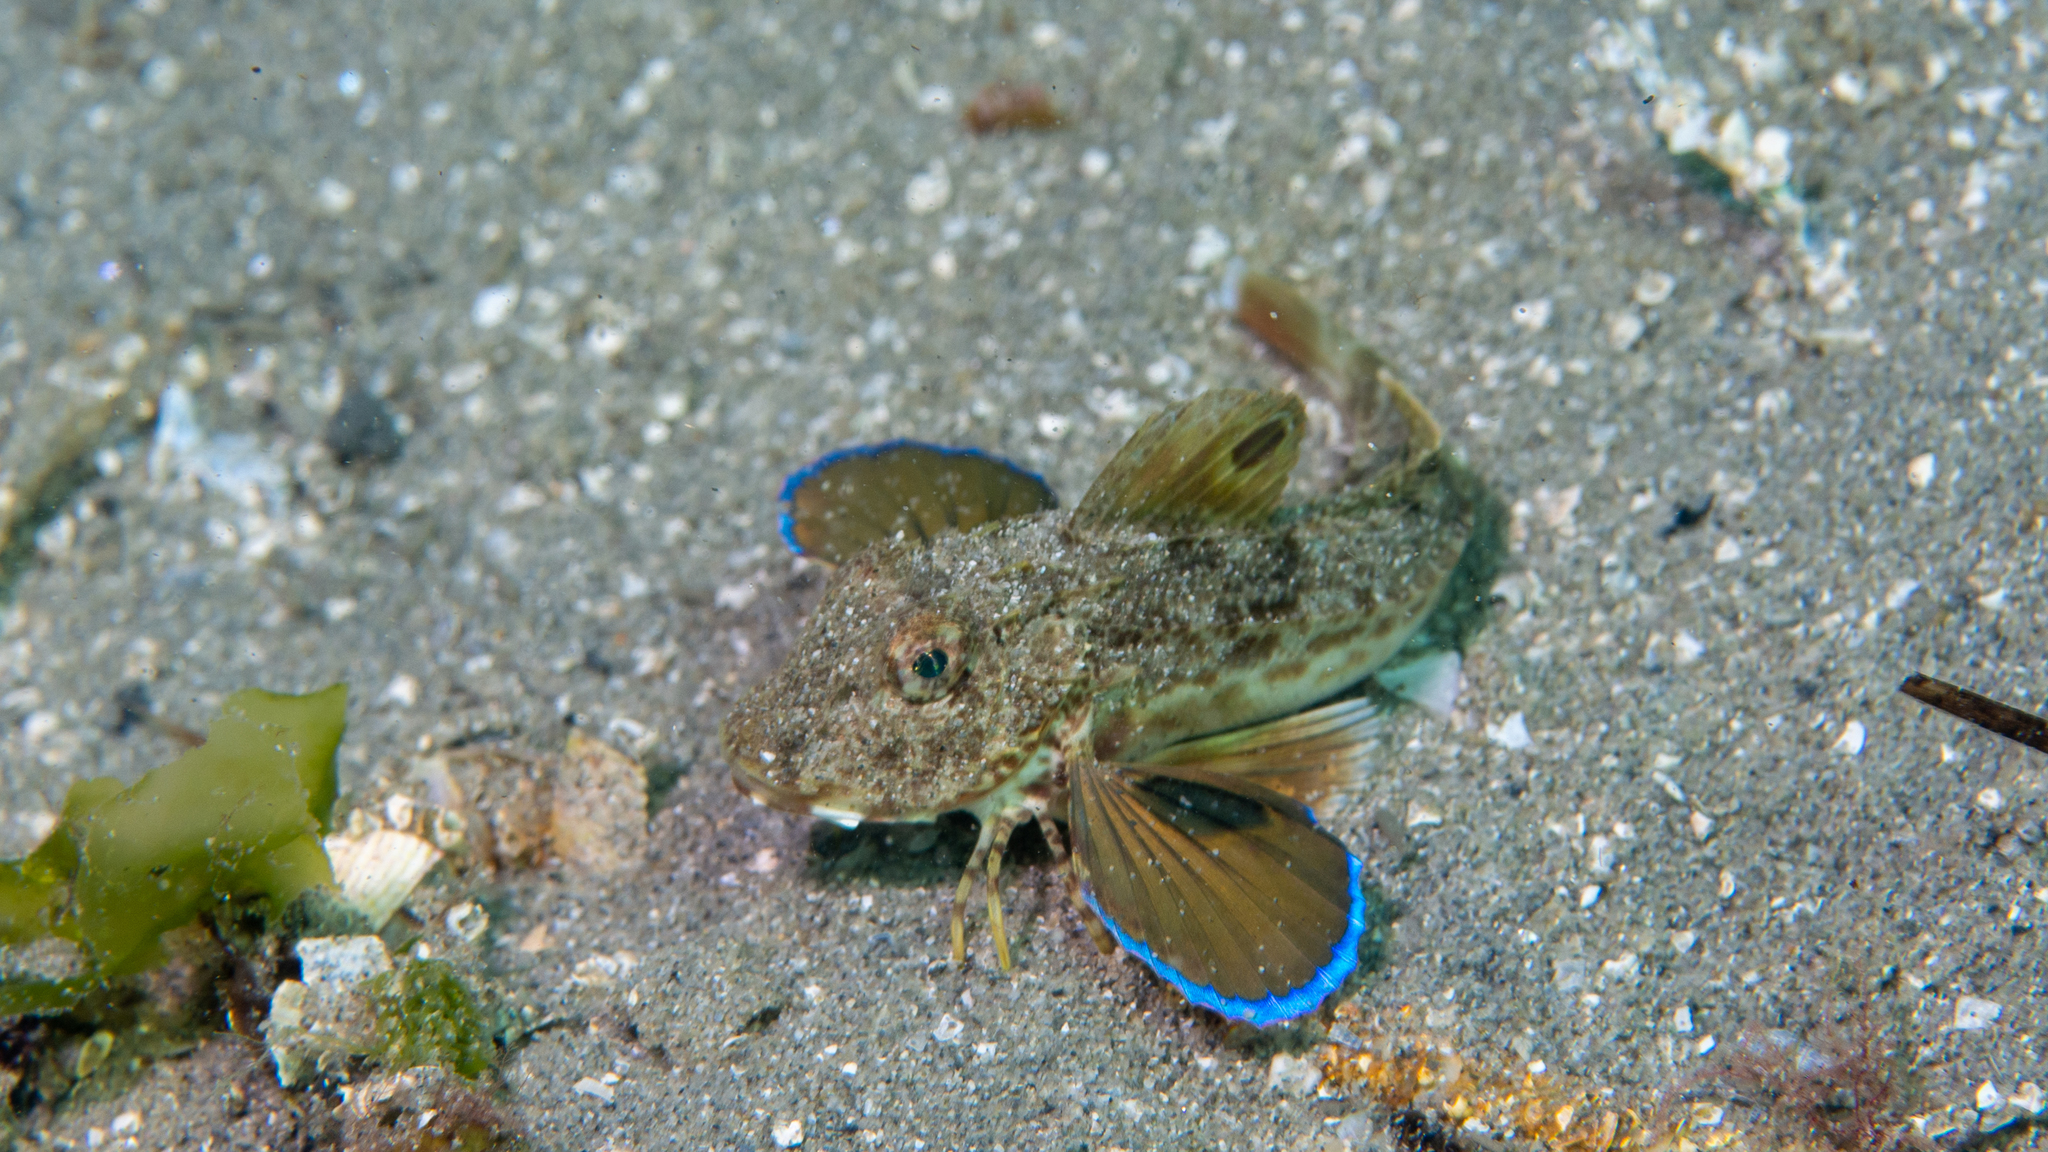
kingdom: Animalia
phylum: Chordata
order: Scorpaeniformes
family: Triglidae
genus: Lepidotrigla
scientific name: Lepidotrigla papilio
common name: Australian spiny gurnard
